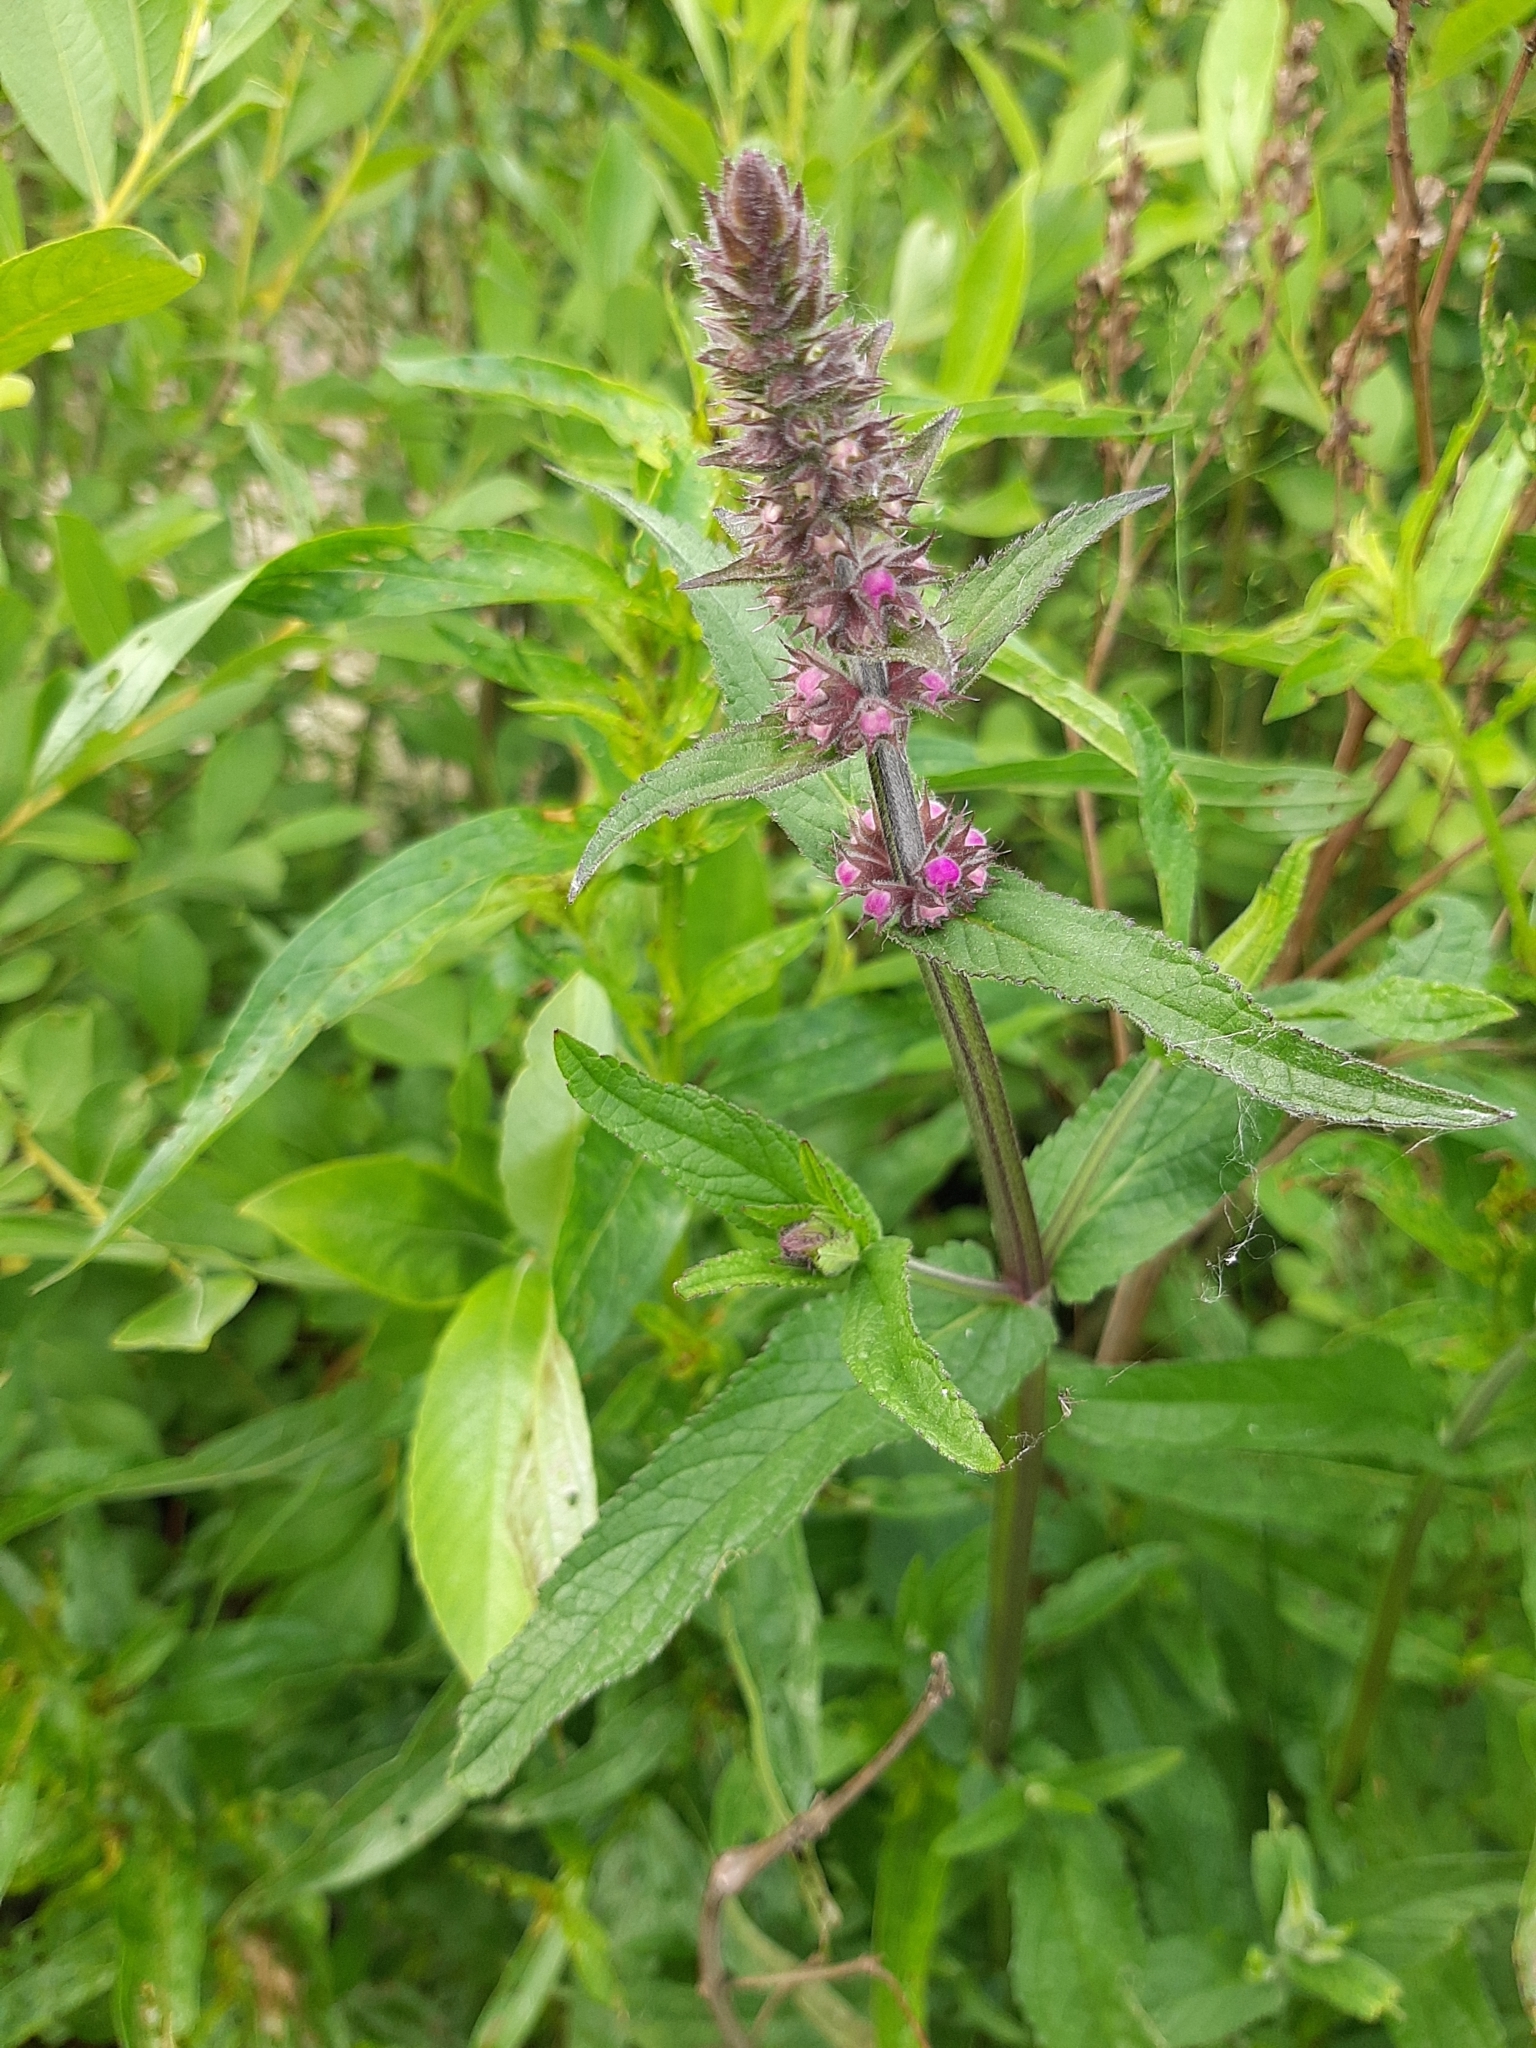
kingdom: Plantae
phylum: Tracheophyta
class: Magnoliopsida
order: Lamiales
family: Lamiaceae
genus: Stachys
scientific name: Stachys palustris
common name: Marsh woundwort
